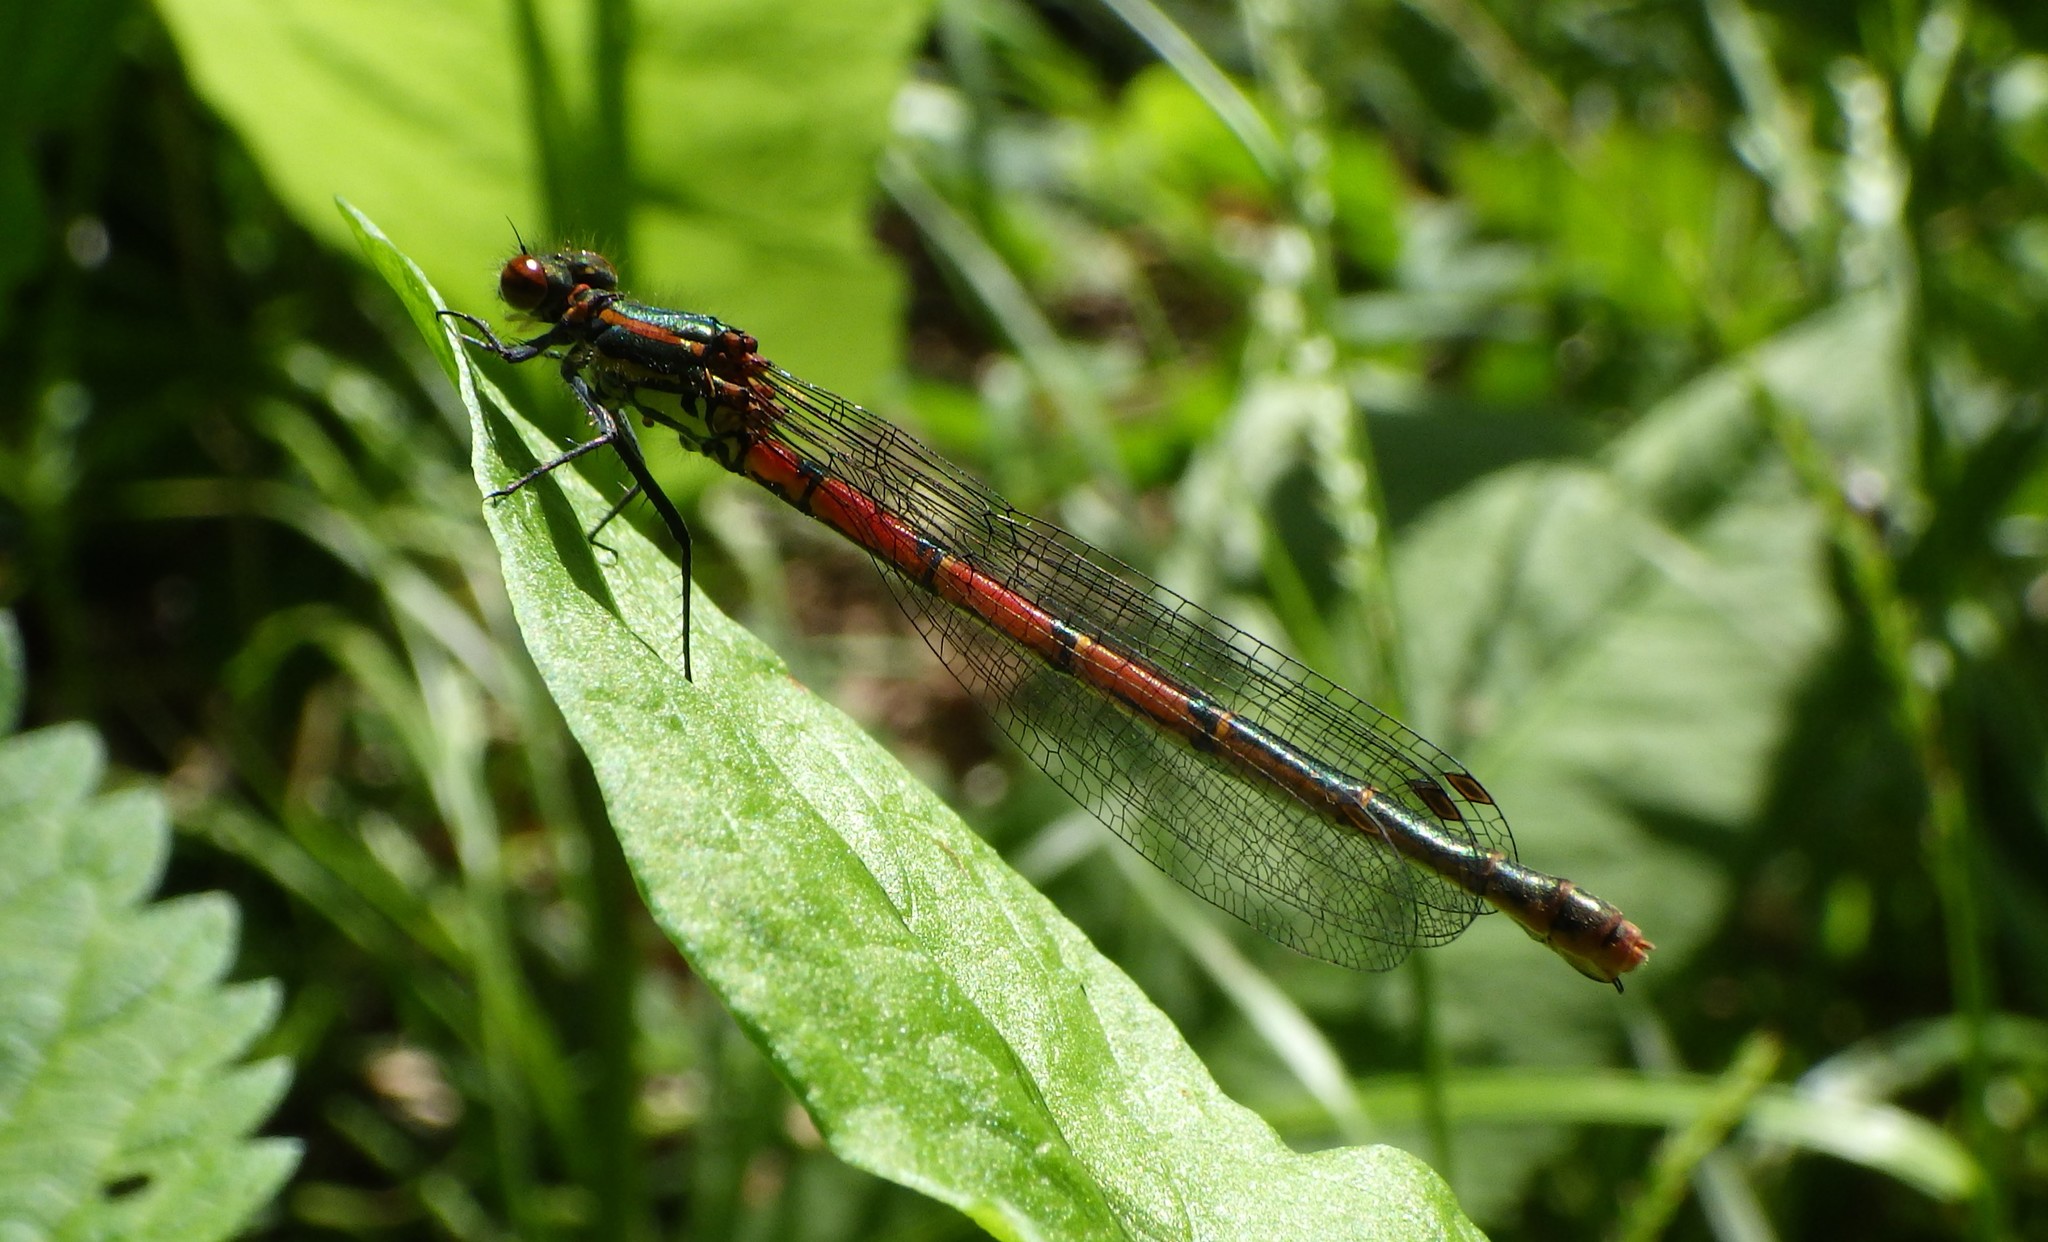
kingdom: Animalia
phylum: Arthropoda
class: Insecta
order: Odonata
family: Coenagrionidae
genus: Pyrrhosoma
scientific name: Pyrrhosoma nymphula
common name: Large red damsel
